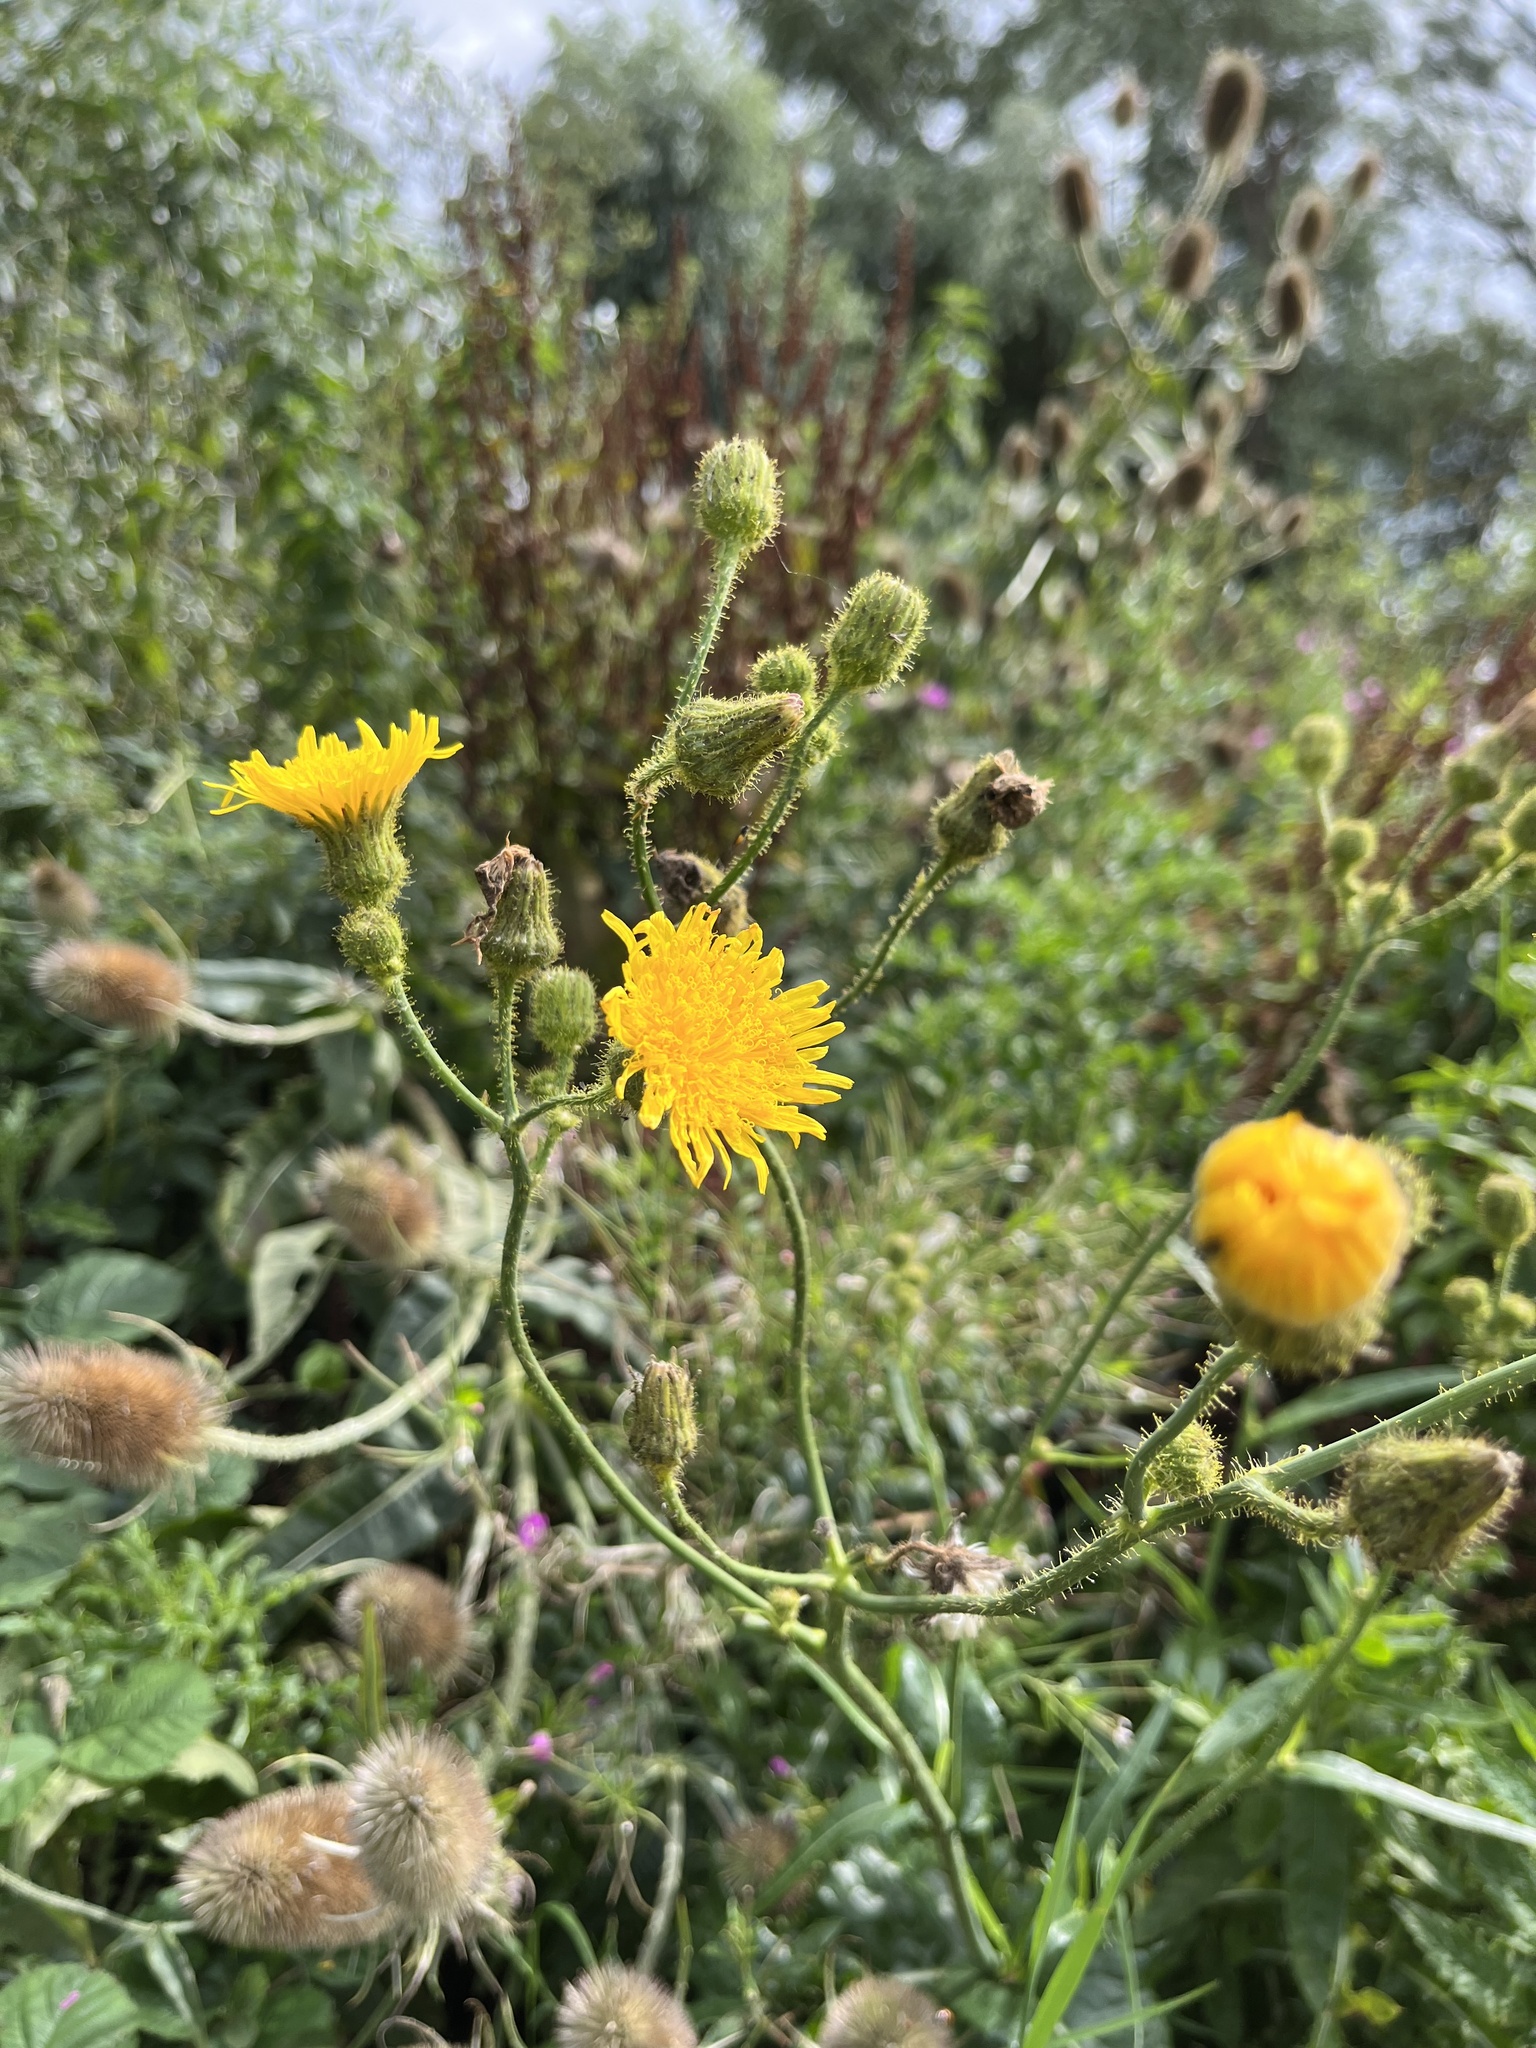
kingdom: Plantae
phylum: Tracheophyta
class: Magnoliopsida
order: Asterales
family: Asteraceae
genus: Sonchus
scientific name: Sonchus arvensis
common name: Perennial sow-thistle
